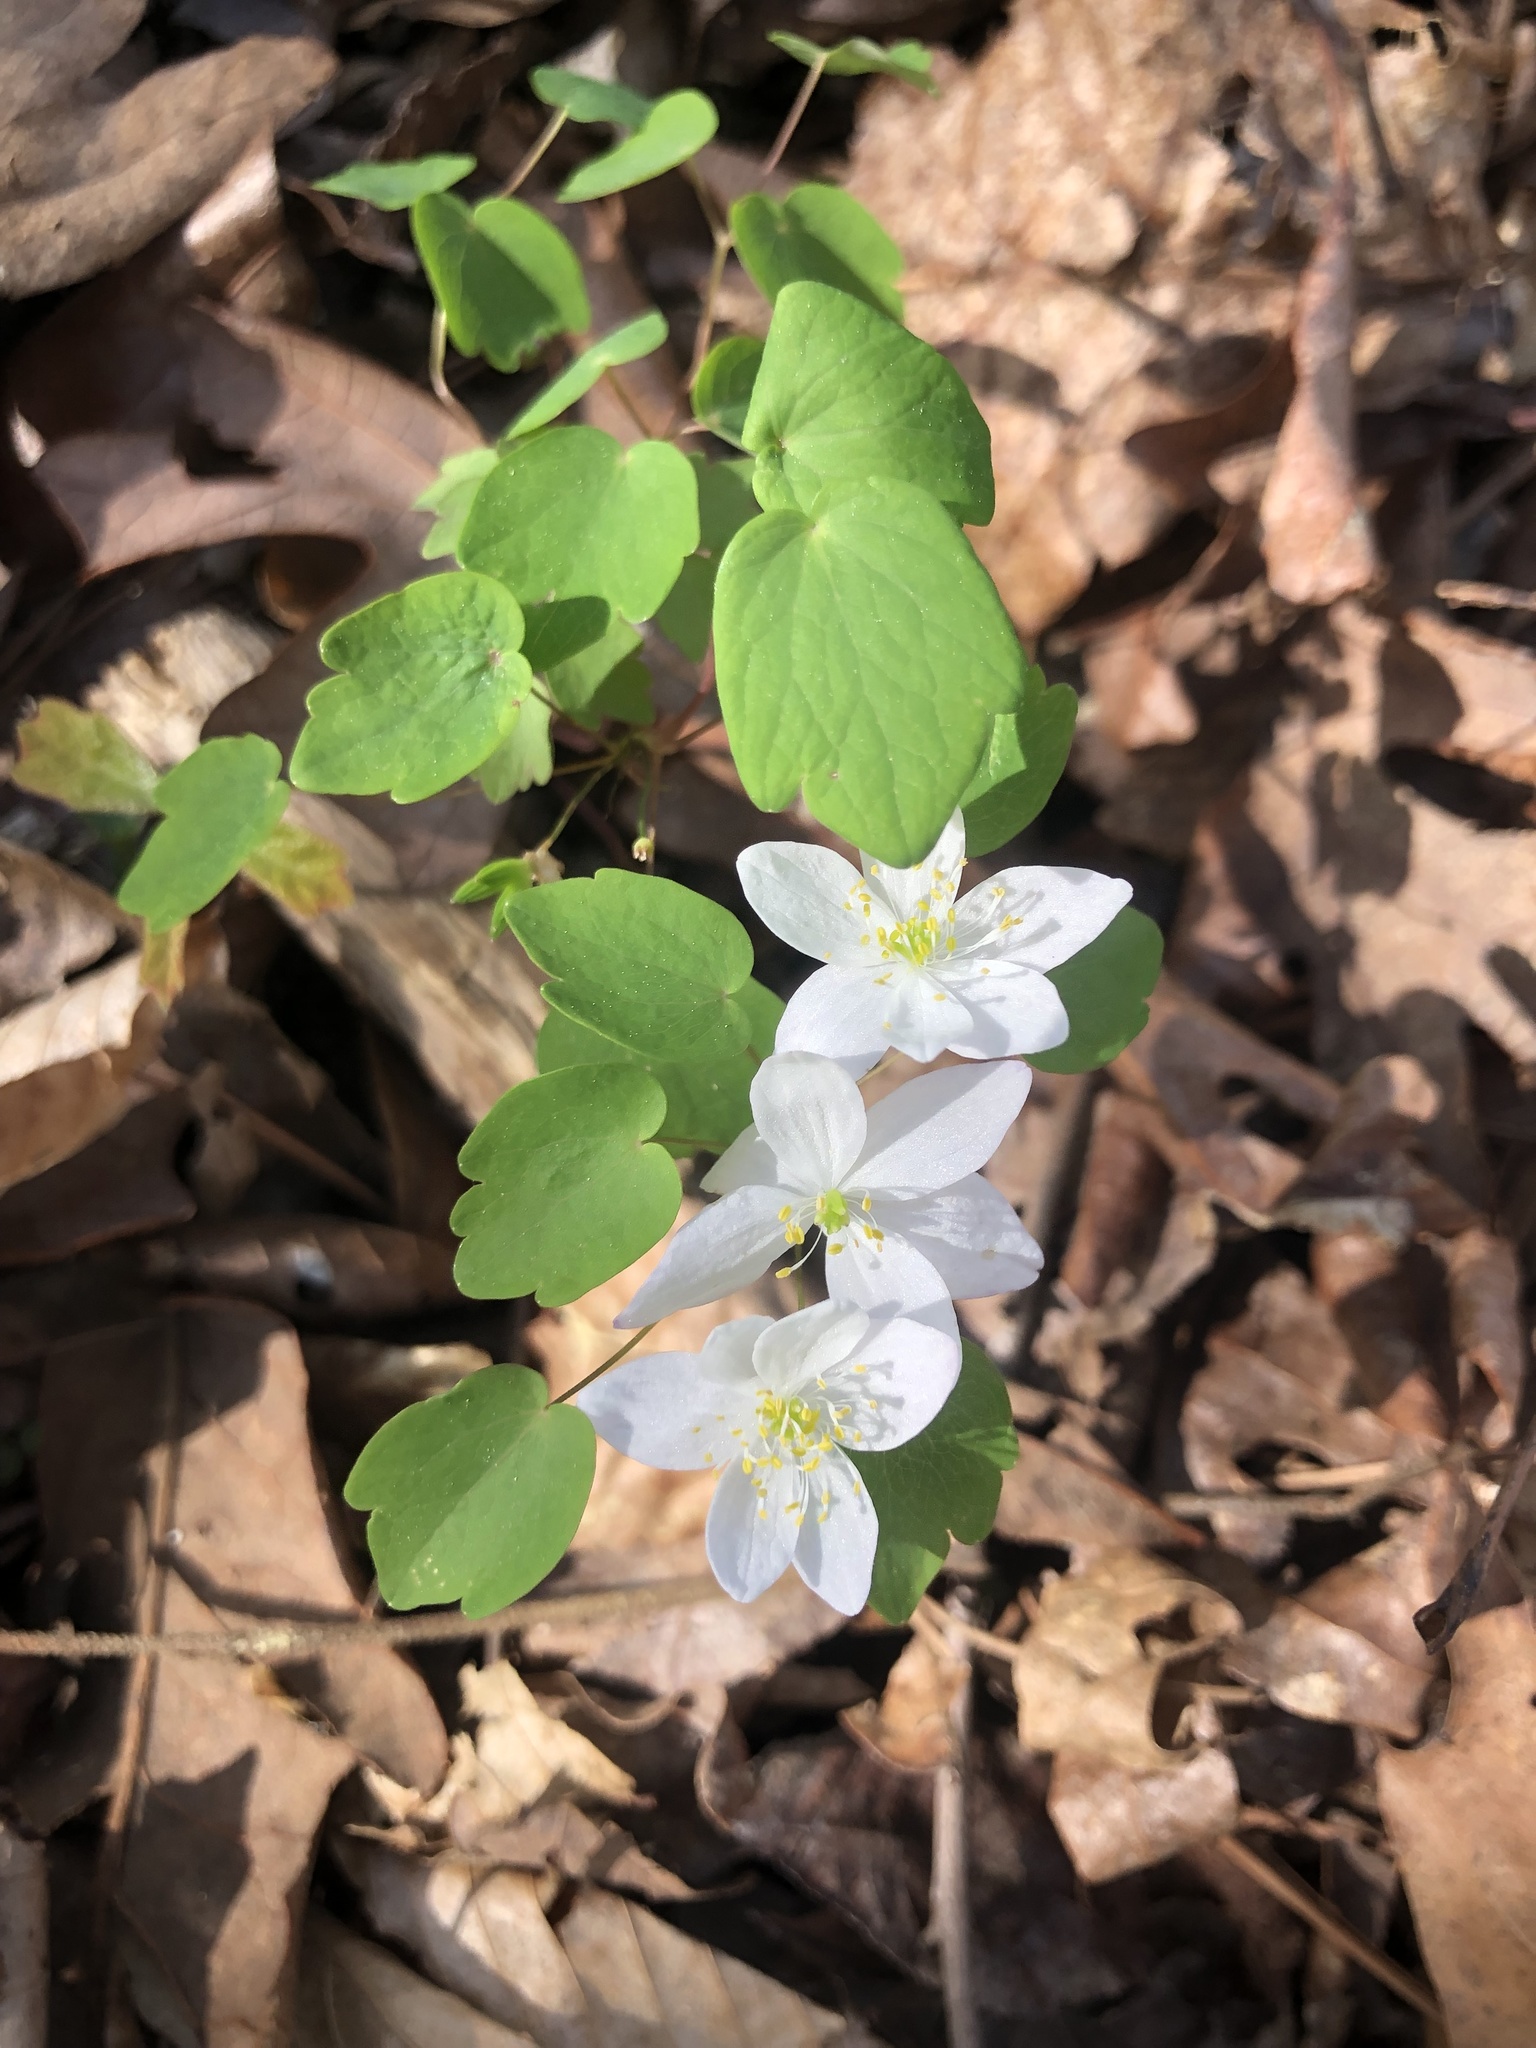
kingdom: Plantae
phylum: Tracheophyta
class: Magnoliopsida
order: Ranunculales
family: Ranunculaceae
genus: Thalictrum
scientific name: Thalictrum thalictroides
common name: Rue-anemone
